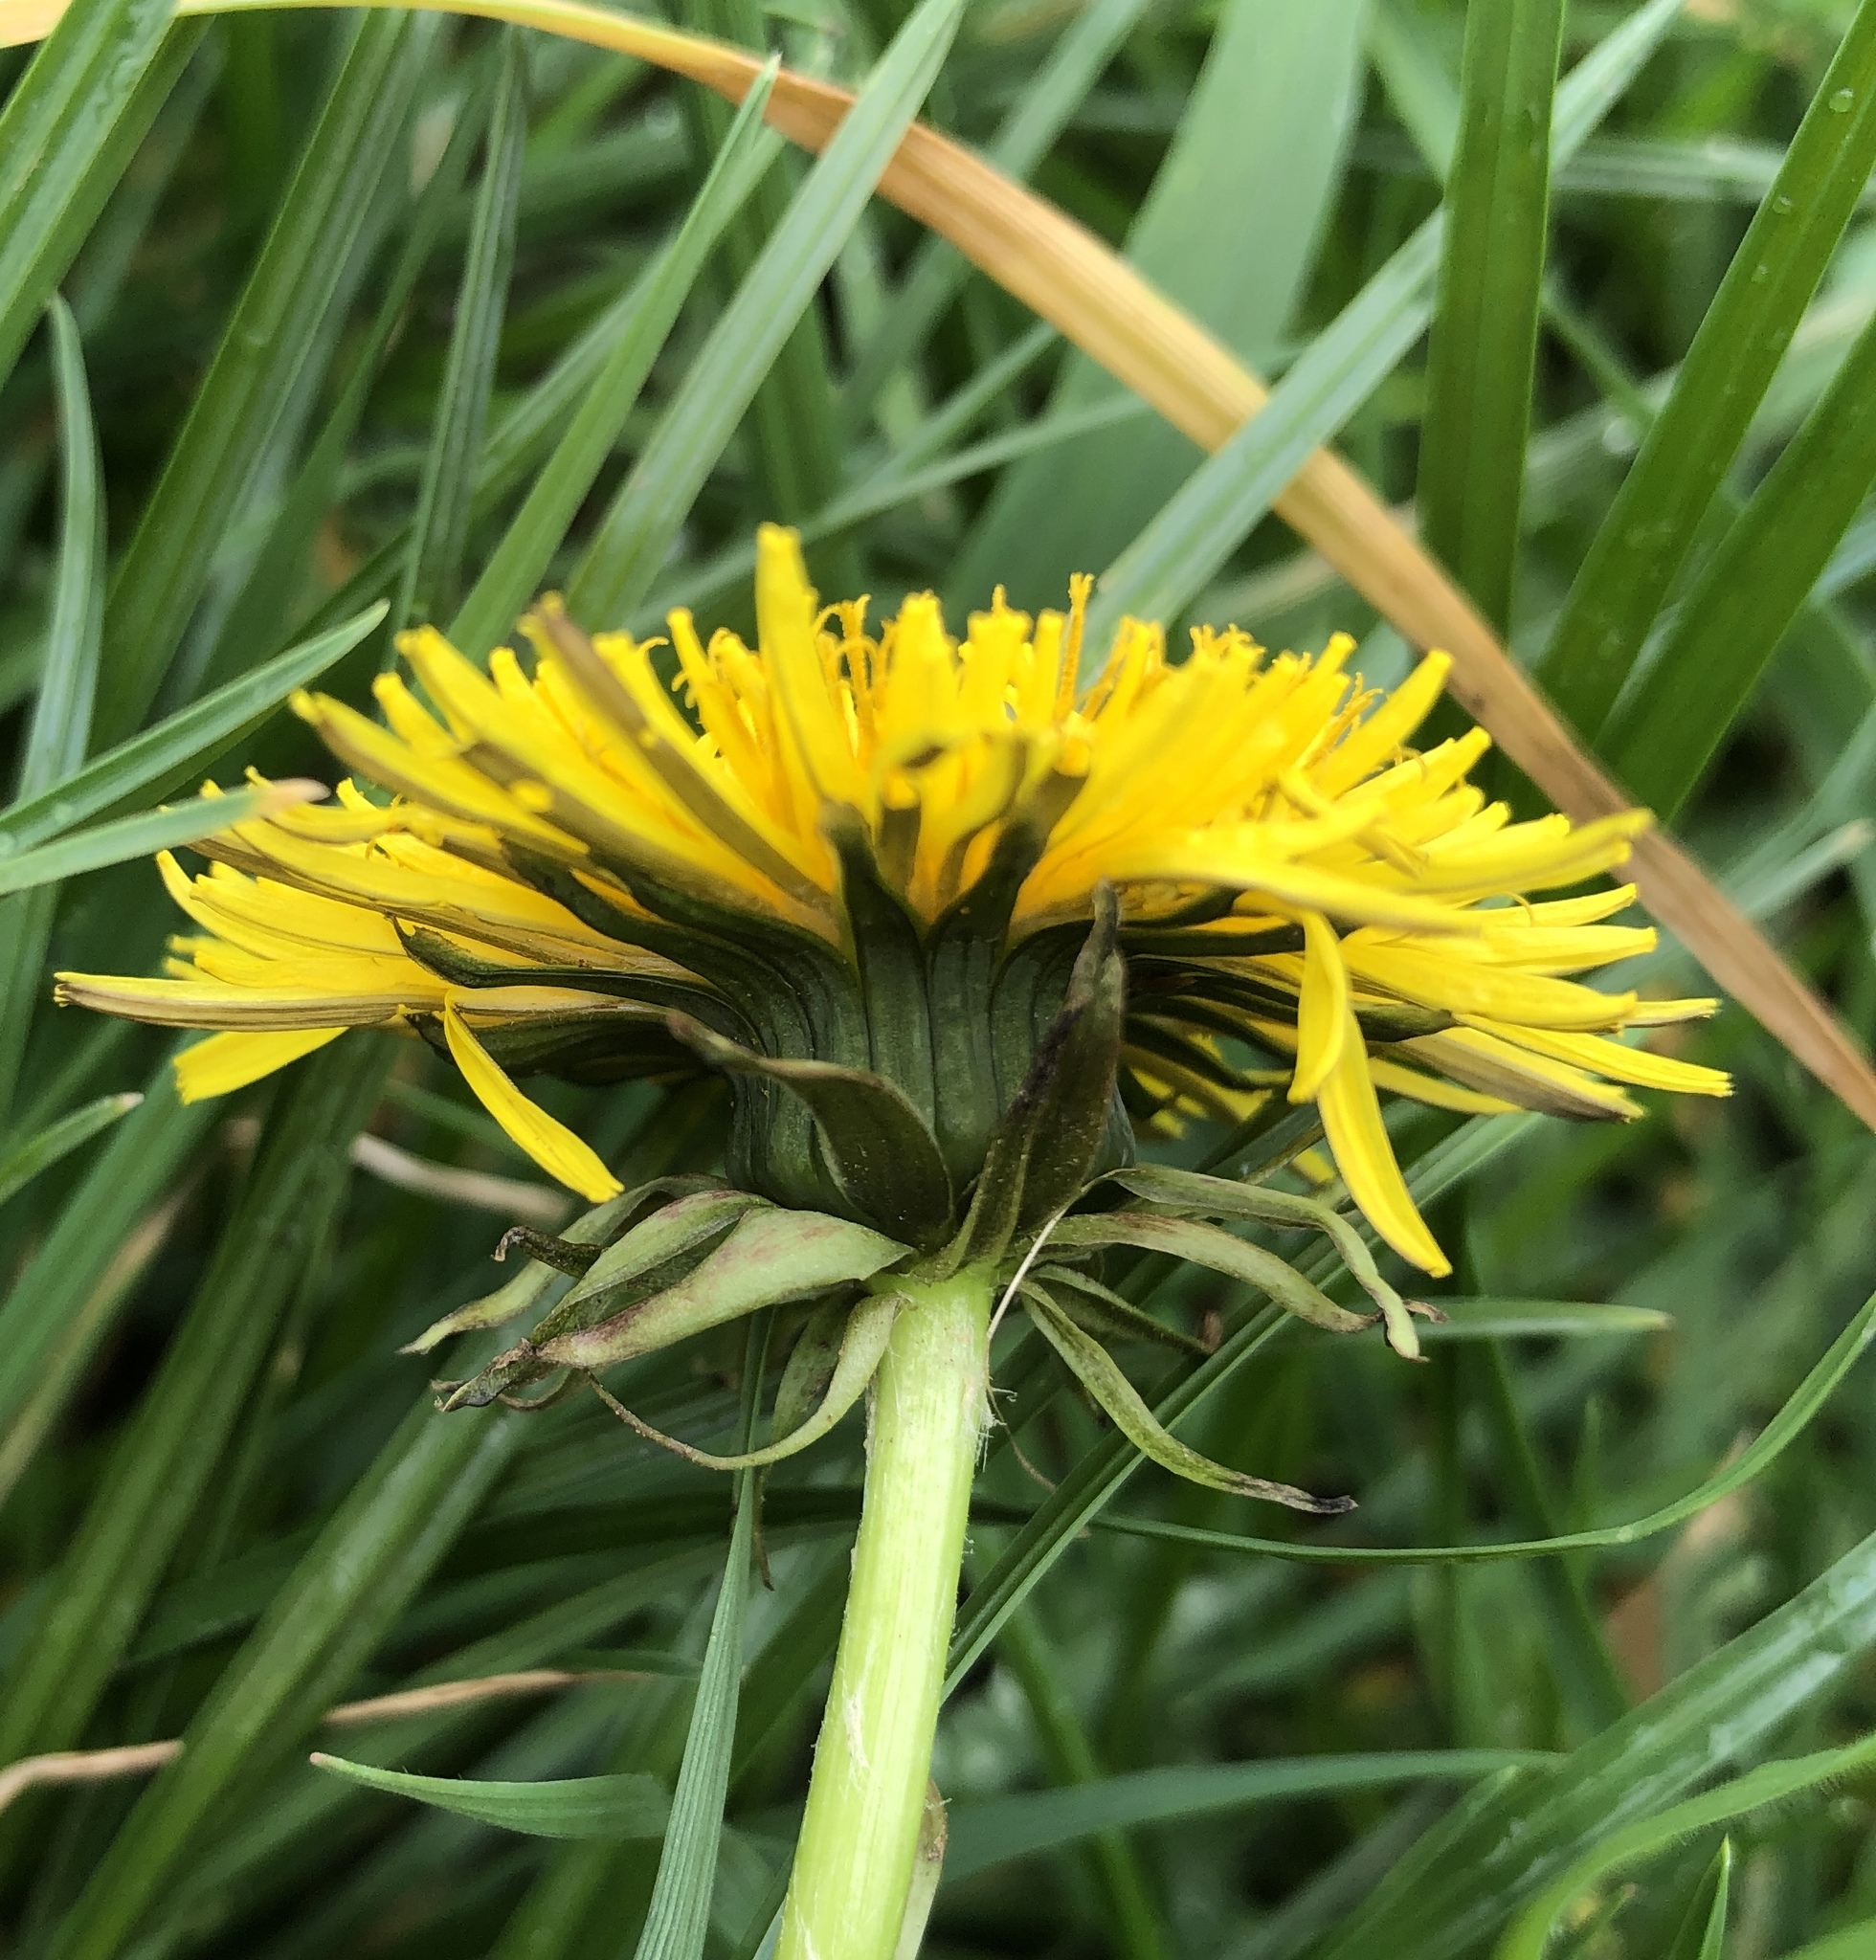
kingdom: Plantae
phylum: Tracheophyta
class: Magnoliopsida
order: Asterales
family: Asteraceae
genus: Taraxacum
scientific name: Taraxacum officinale
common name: Common dandelion
